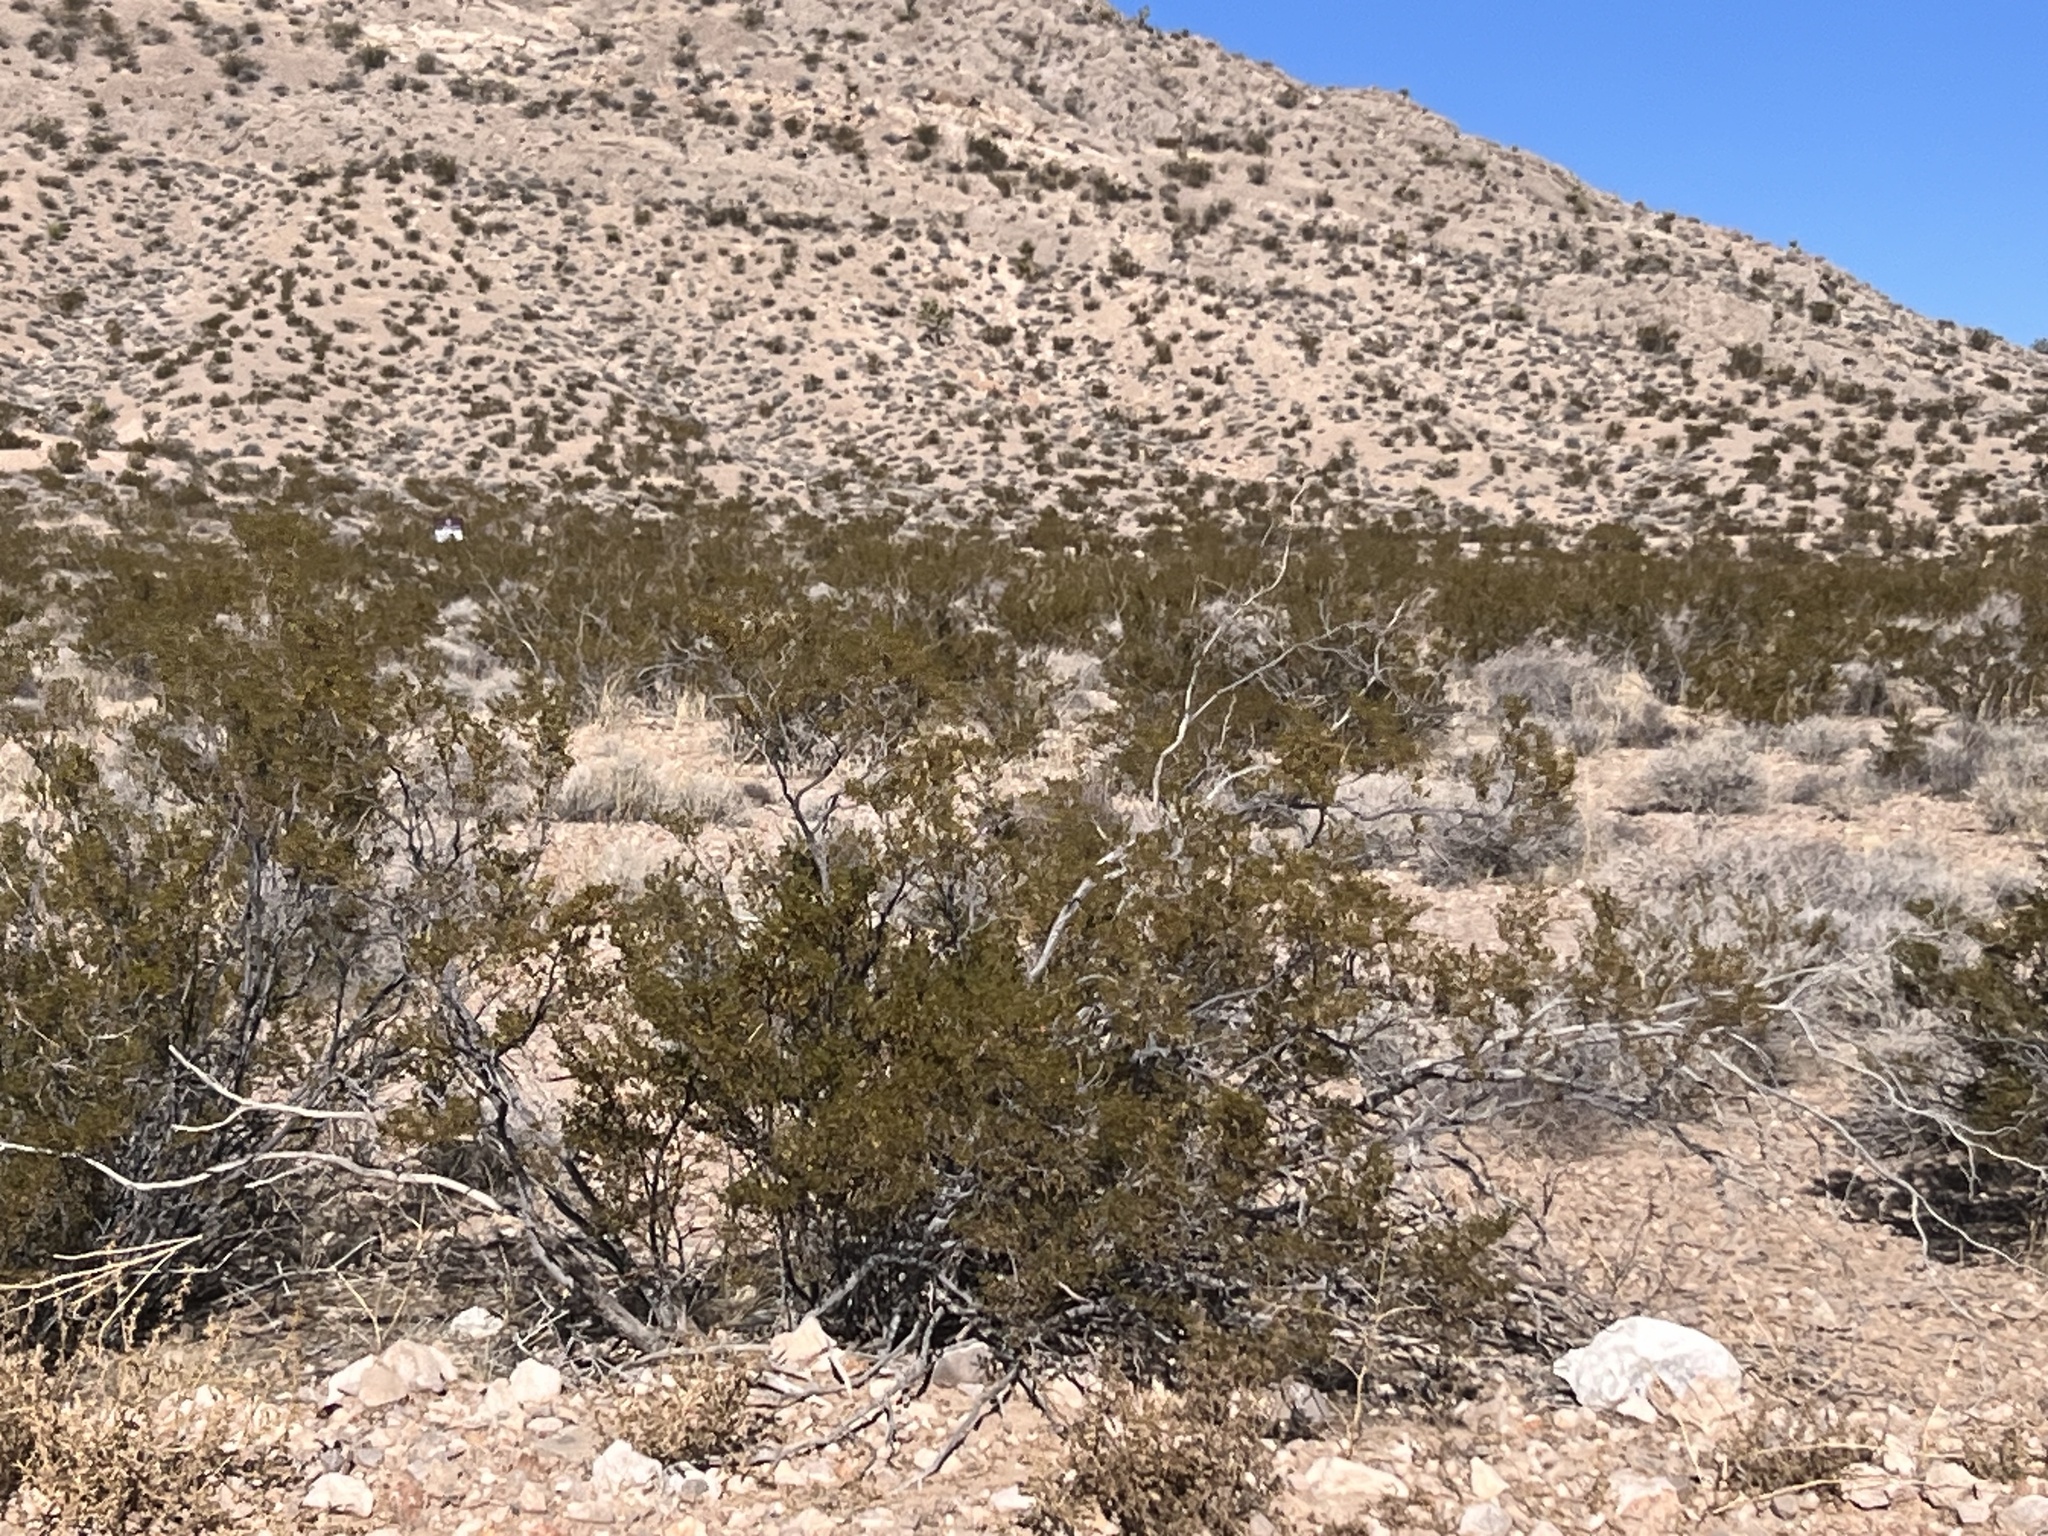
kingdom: Plantae
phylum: Tracheophyta
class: Magnoliopsida
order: Zygophyllales
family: Zygophyllaceae
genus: Larrea
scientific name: Larrea tridentata
